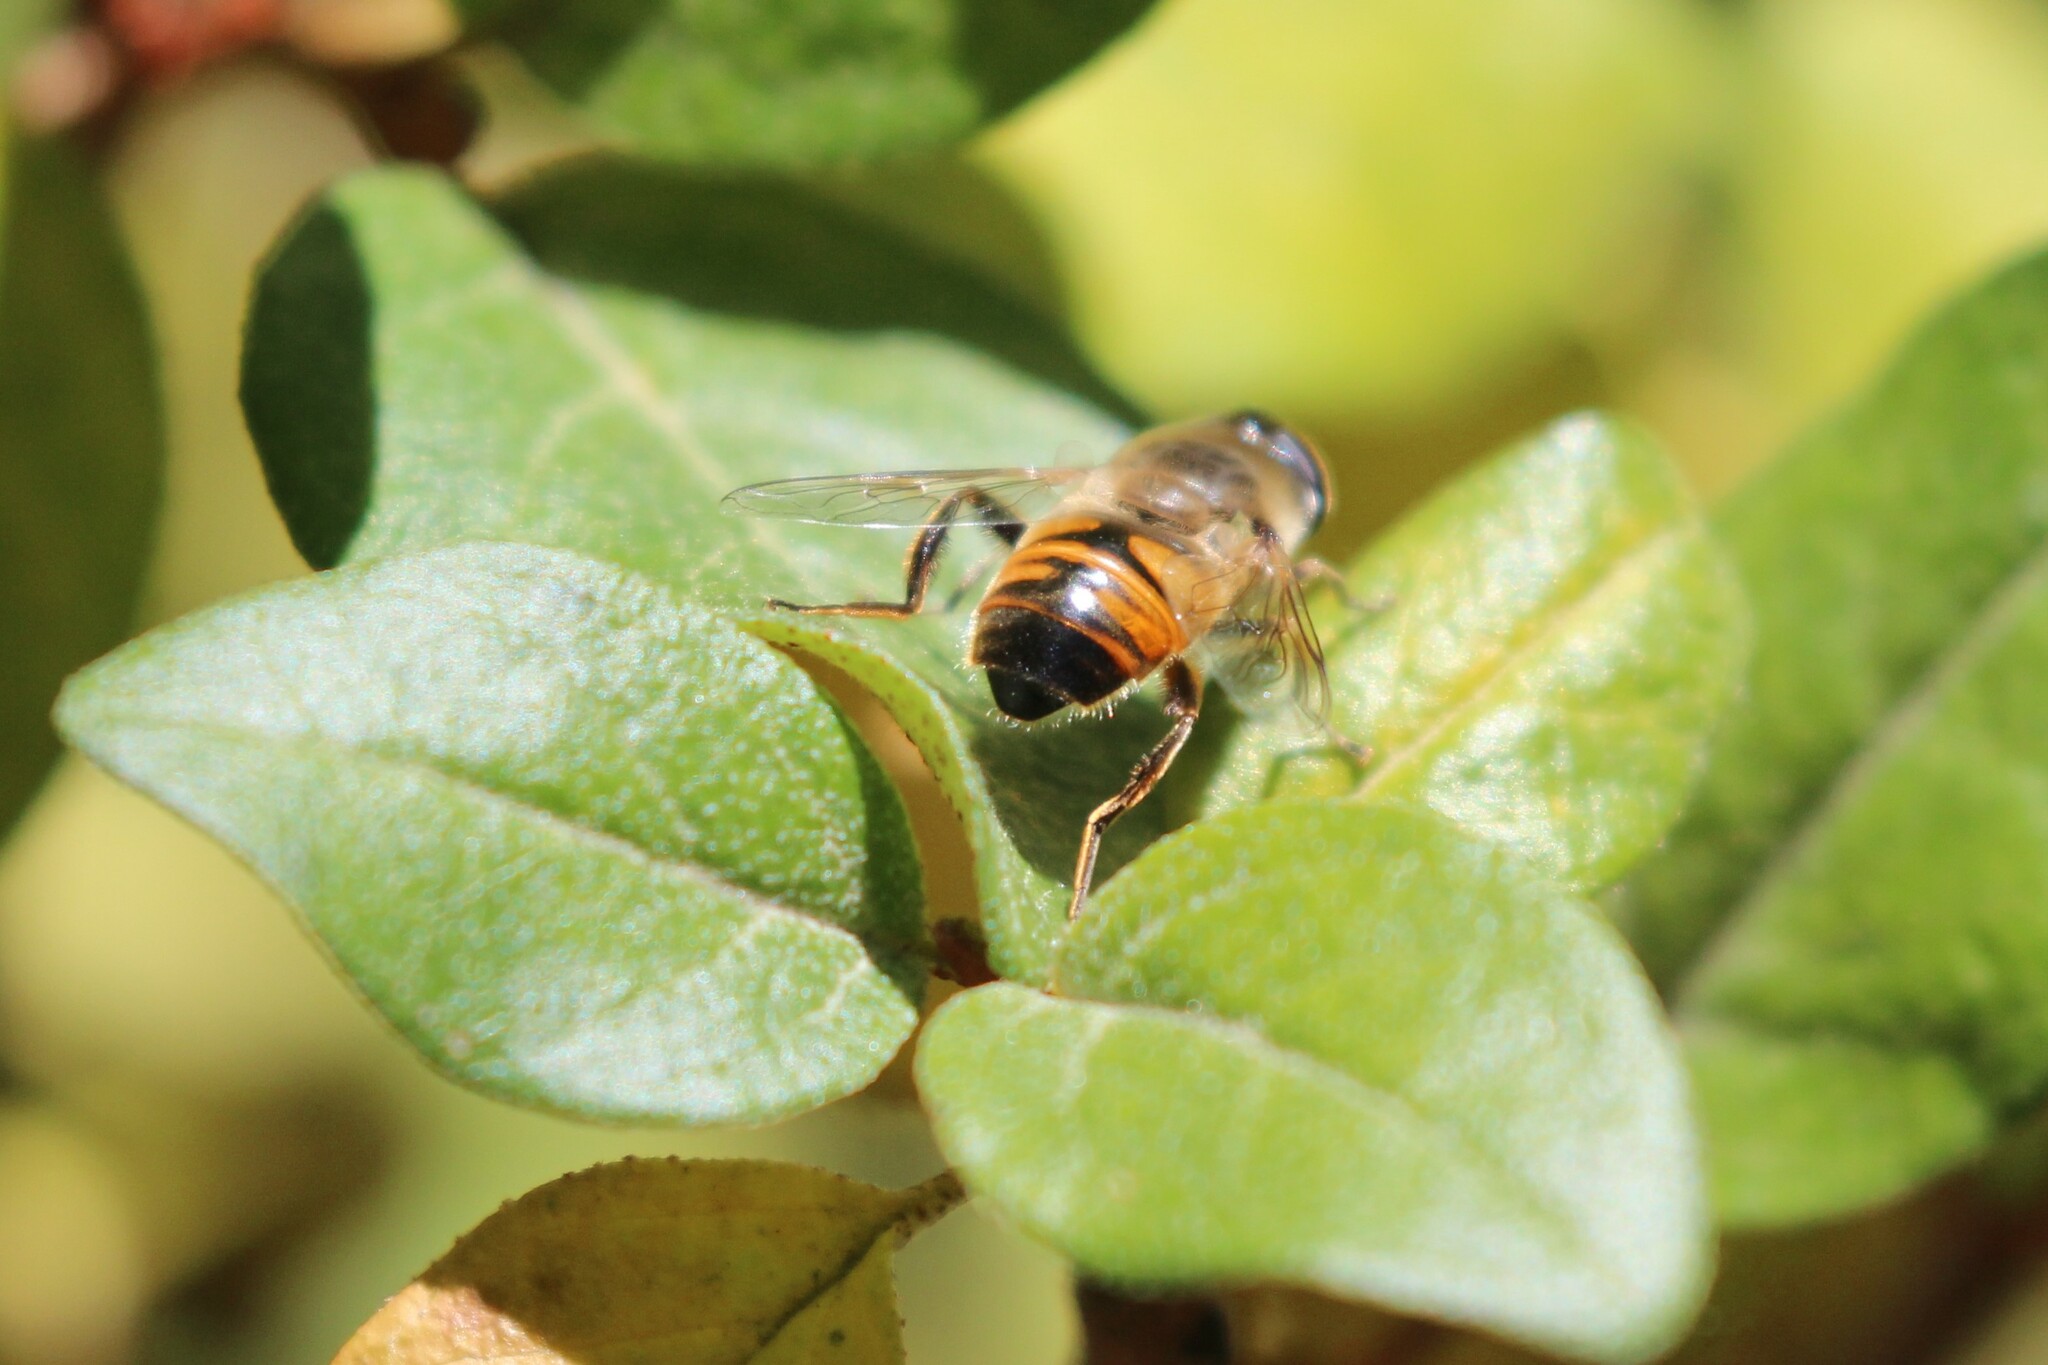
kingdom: Animalia
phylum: Arthropoda
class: Insecta
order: Diptera
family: Syrphidae
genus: Eristalis
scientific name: Eristalis tenax
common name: Drone fly
